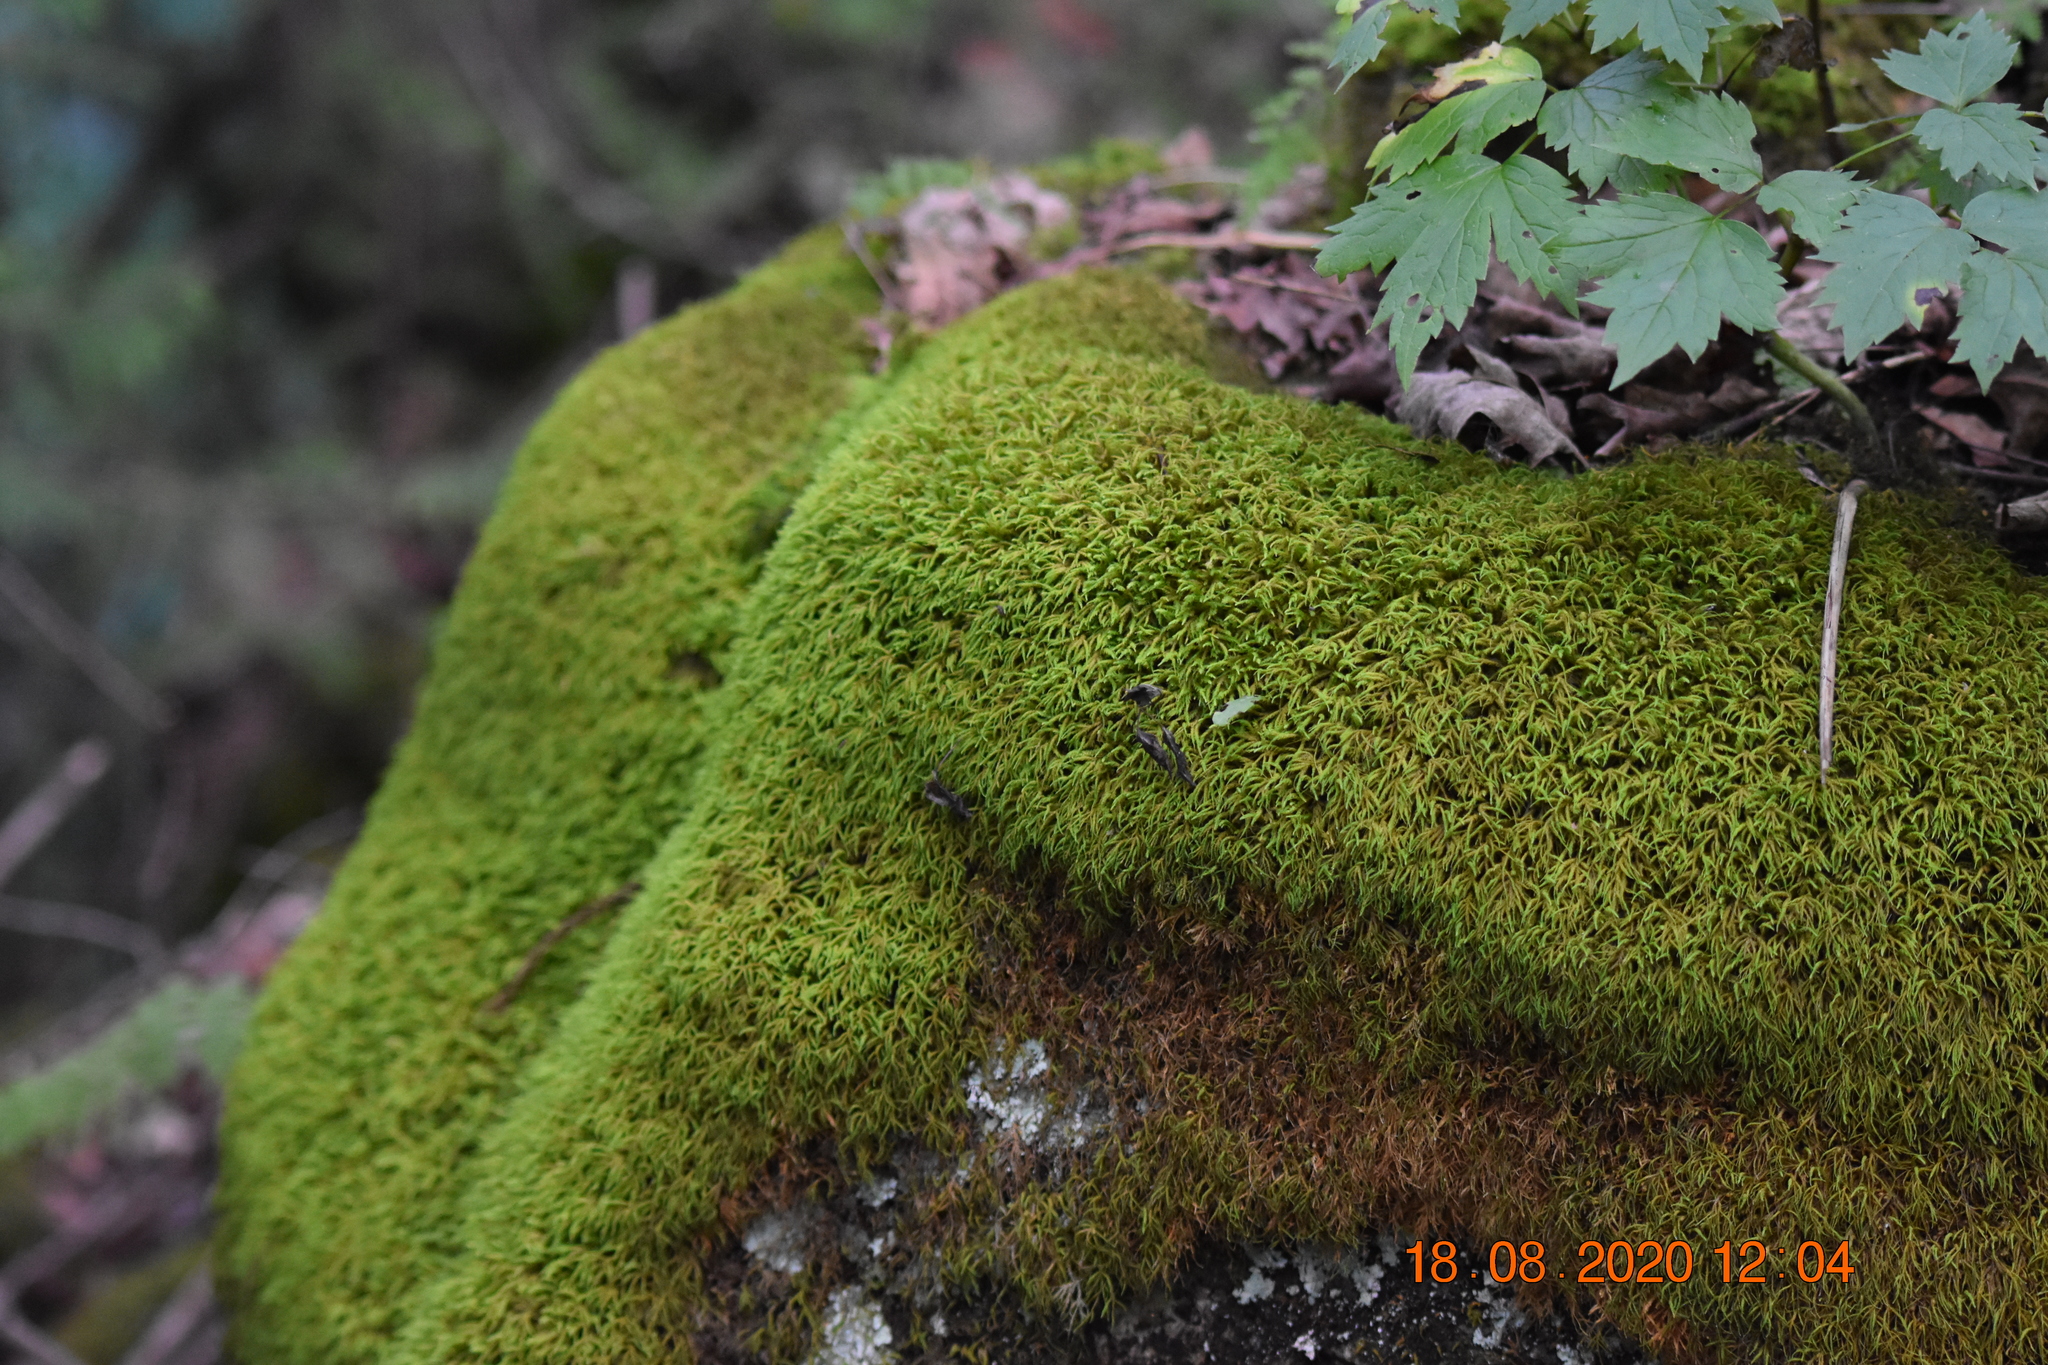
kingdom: Plantae
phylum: Bryophyta
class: Bryopsida
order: Hypnales
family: Neckeraceae
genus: Pseudanomodon
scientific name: Pseudanomodon attenuatus
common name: Tree-skirt moss
